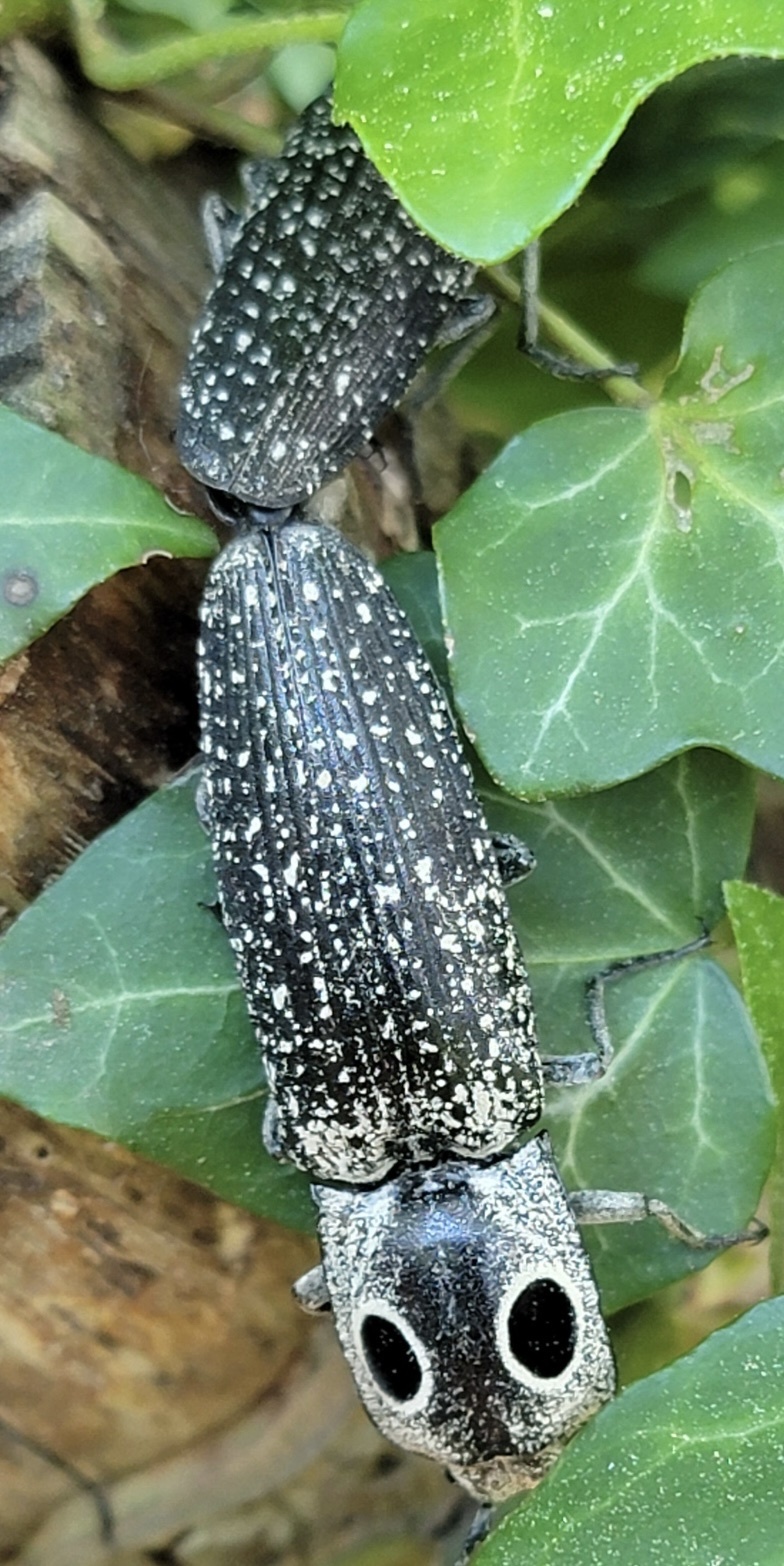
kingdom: Animalia
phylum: Arthropoda
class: Insecta
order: Coleoptera
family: Elateridae
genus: Alaus
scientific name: Alaus oculatus
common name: Eastern eyed click beetle
